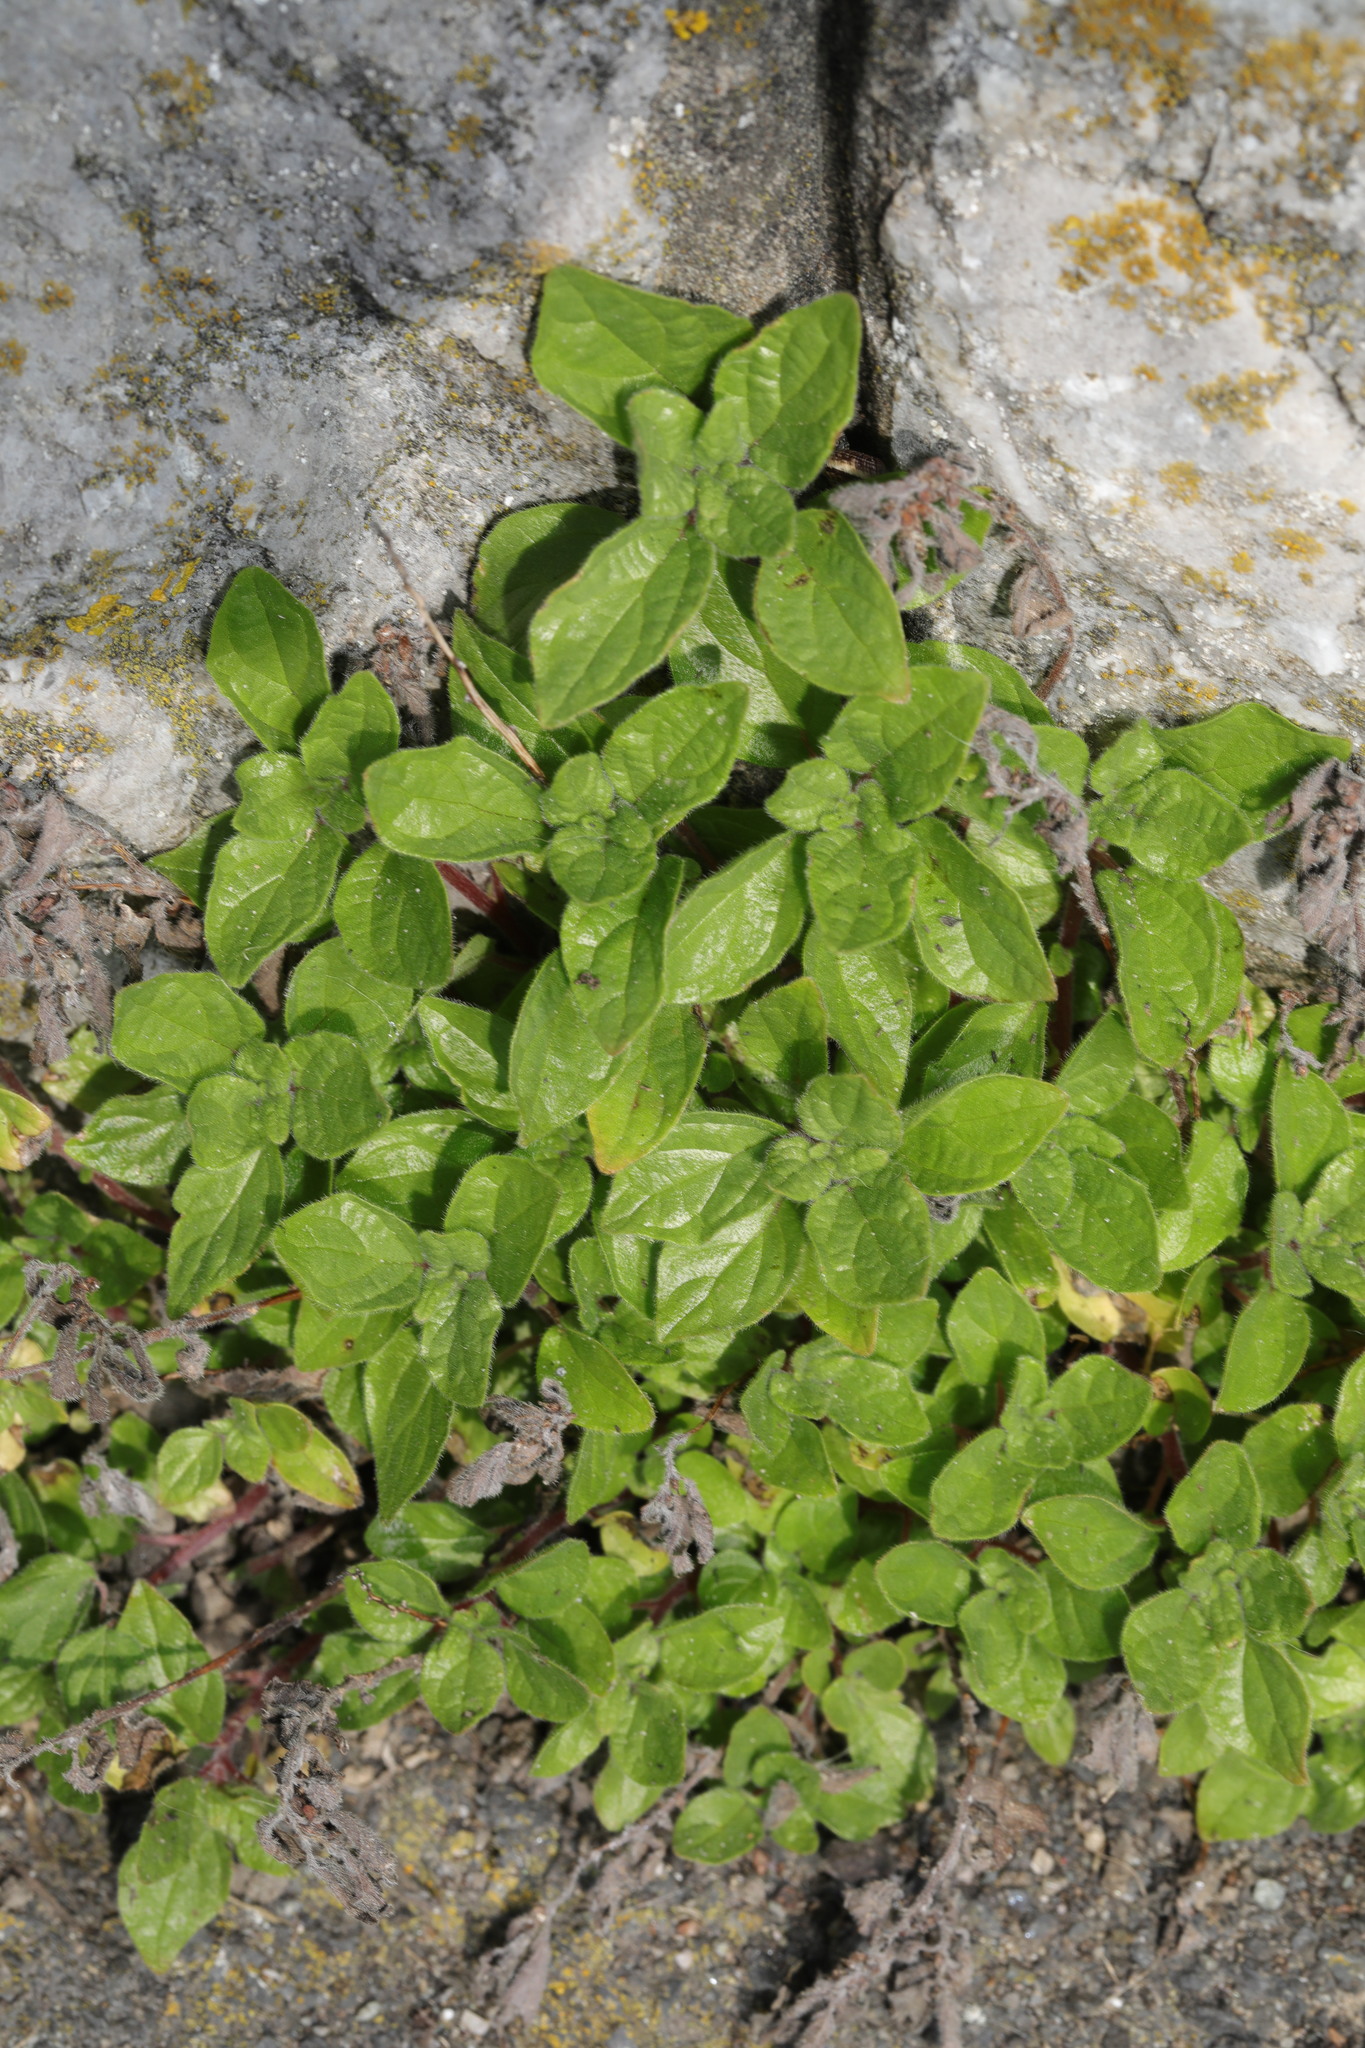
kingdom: Plantae
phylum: Tracheophyta
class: Magnoliopsida
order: Rosales
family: Urticaceae
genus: Parietaria
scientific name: Parietaria judaica
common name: Pellitory-of-the-wall
